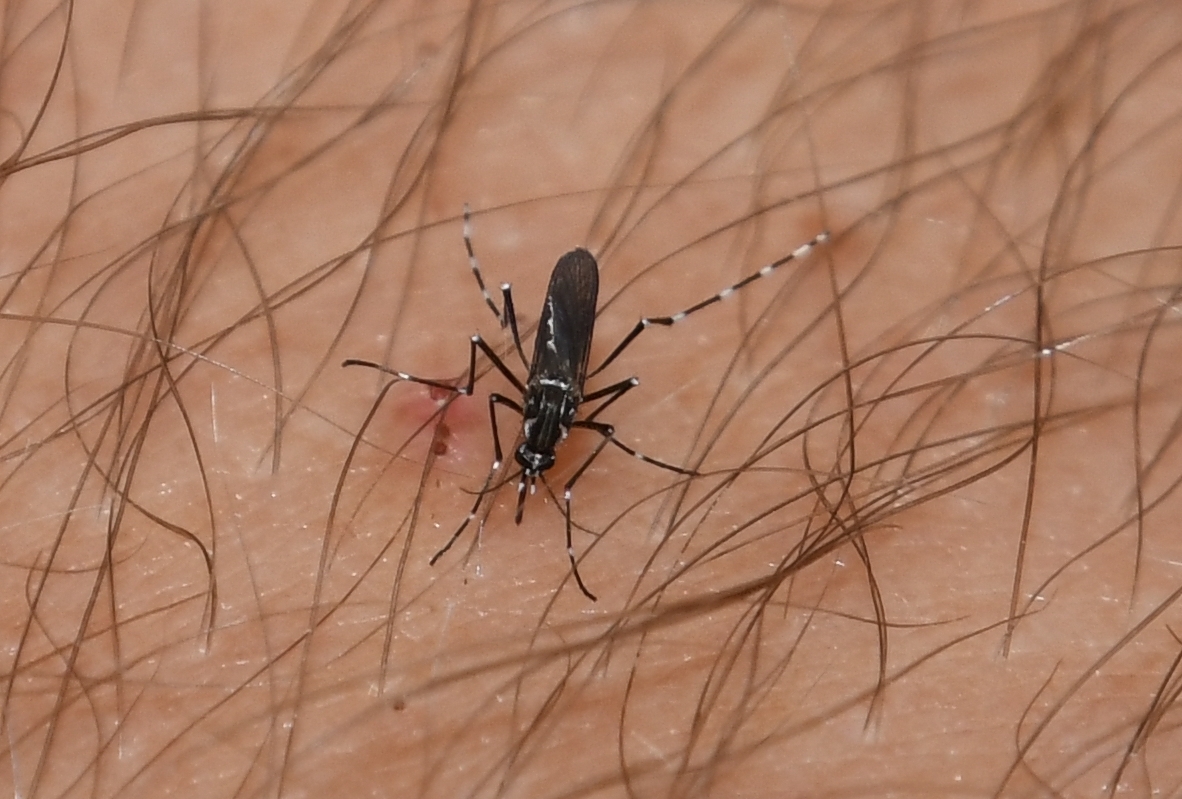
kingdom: Animalia
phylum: Arthropoda
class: Insecta
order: Diptera
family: Culicidae
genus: Aedes
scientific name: Aedes aegypti
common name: Yellow fever mosquito
